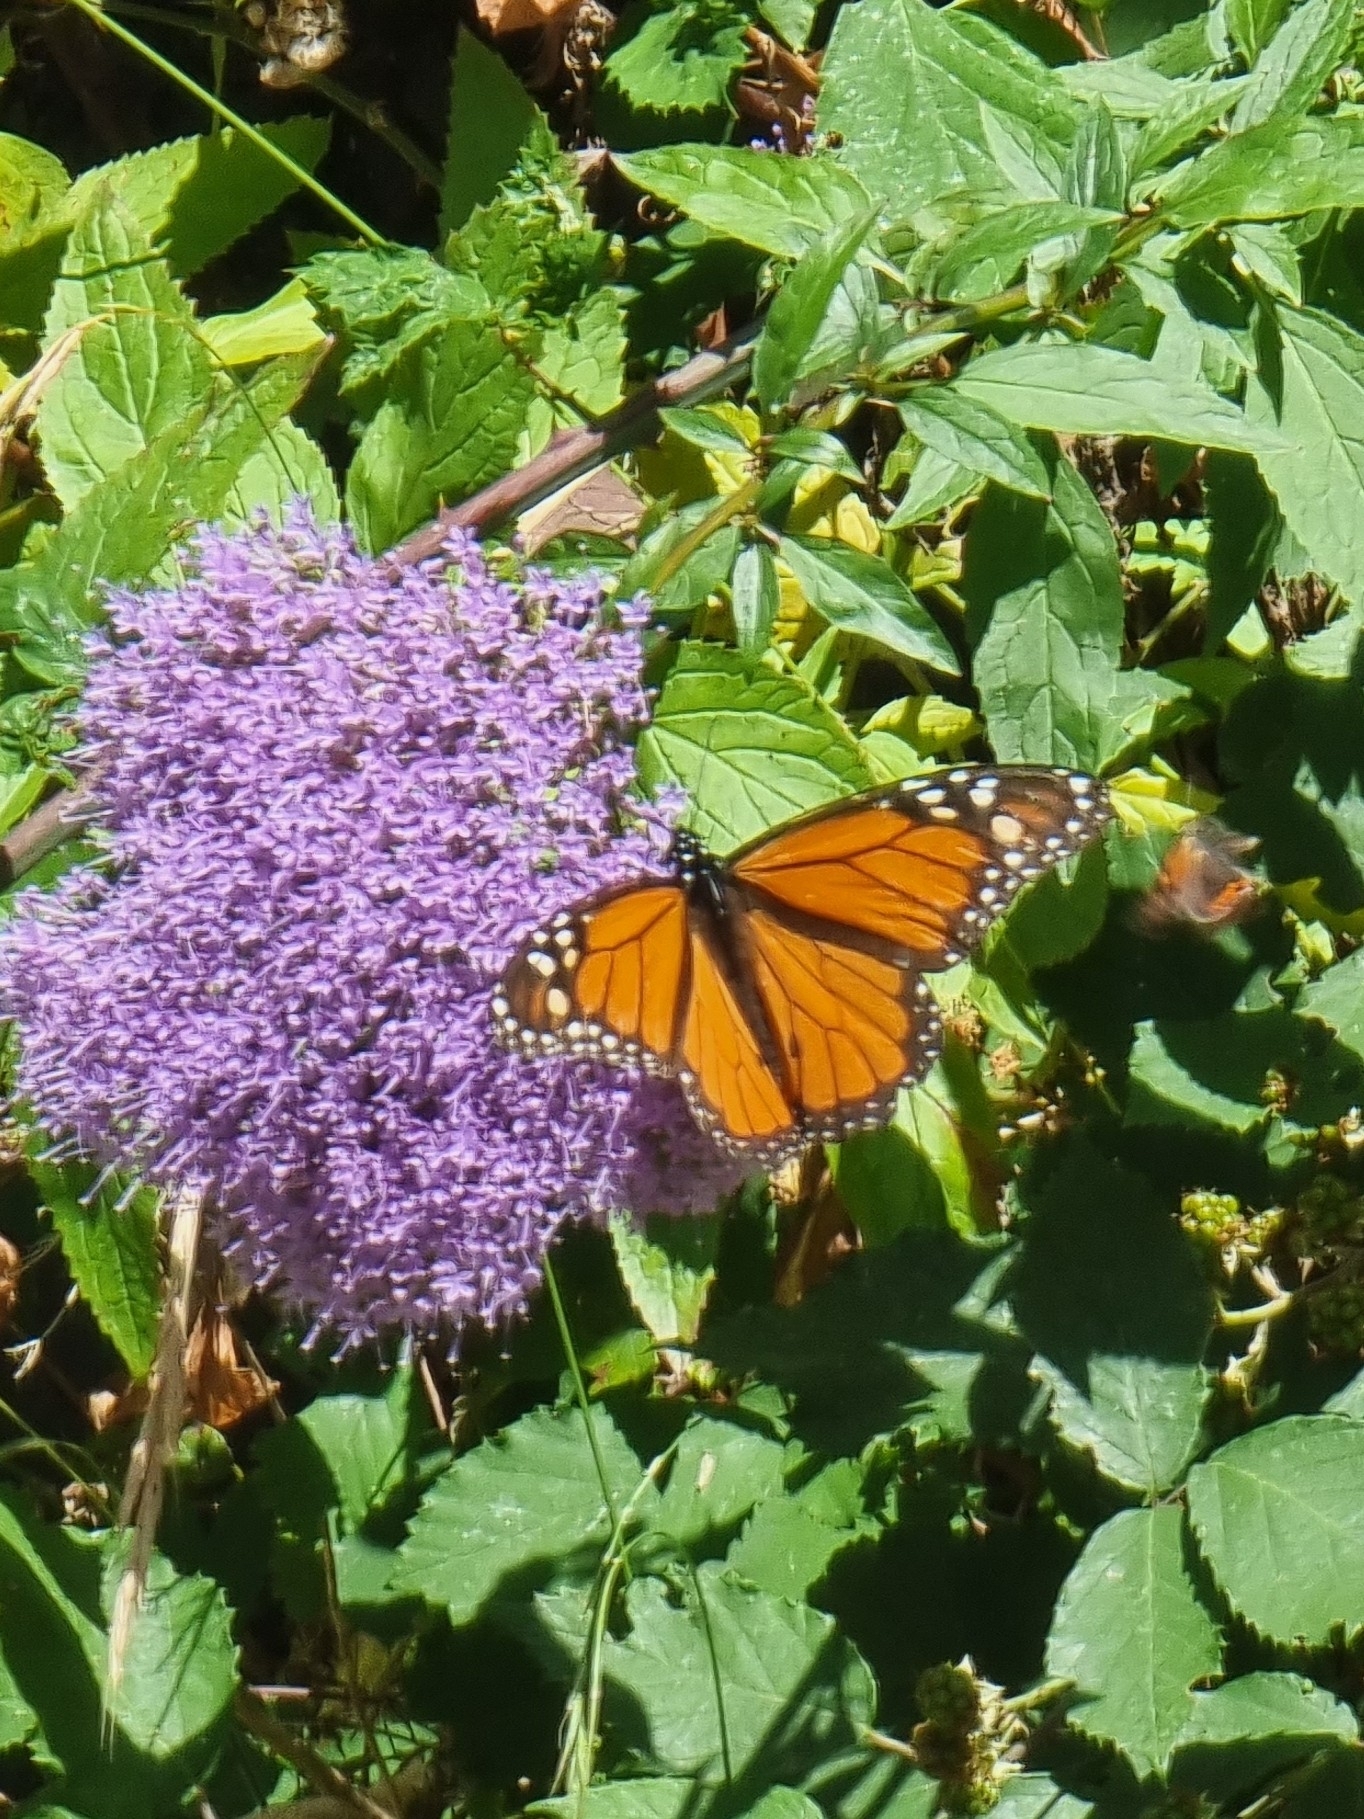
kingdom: Animalia
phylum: Arthropoda
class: Insecta
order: Lepidoptera
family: Nymphalidae
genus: Danaus
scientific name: Danaus plexippus
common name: Monarch
